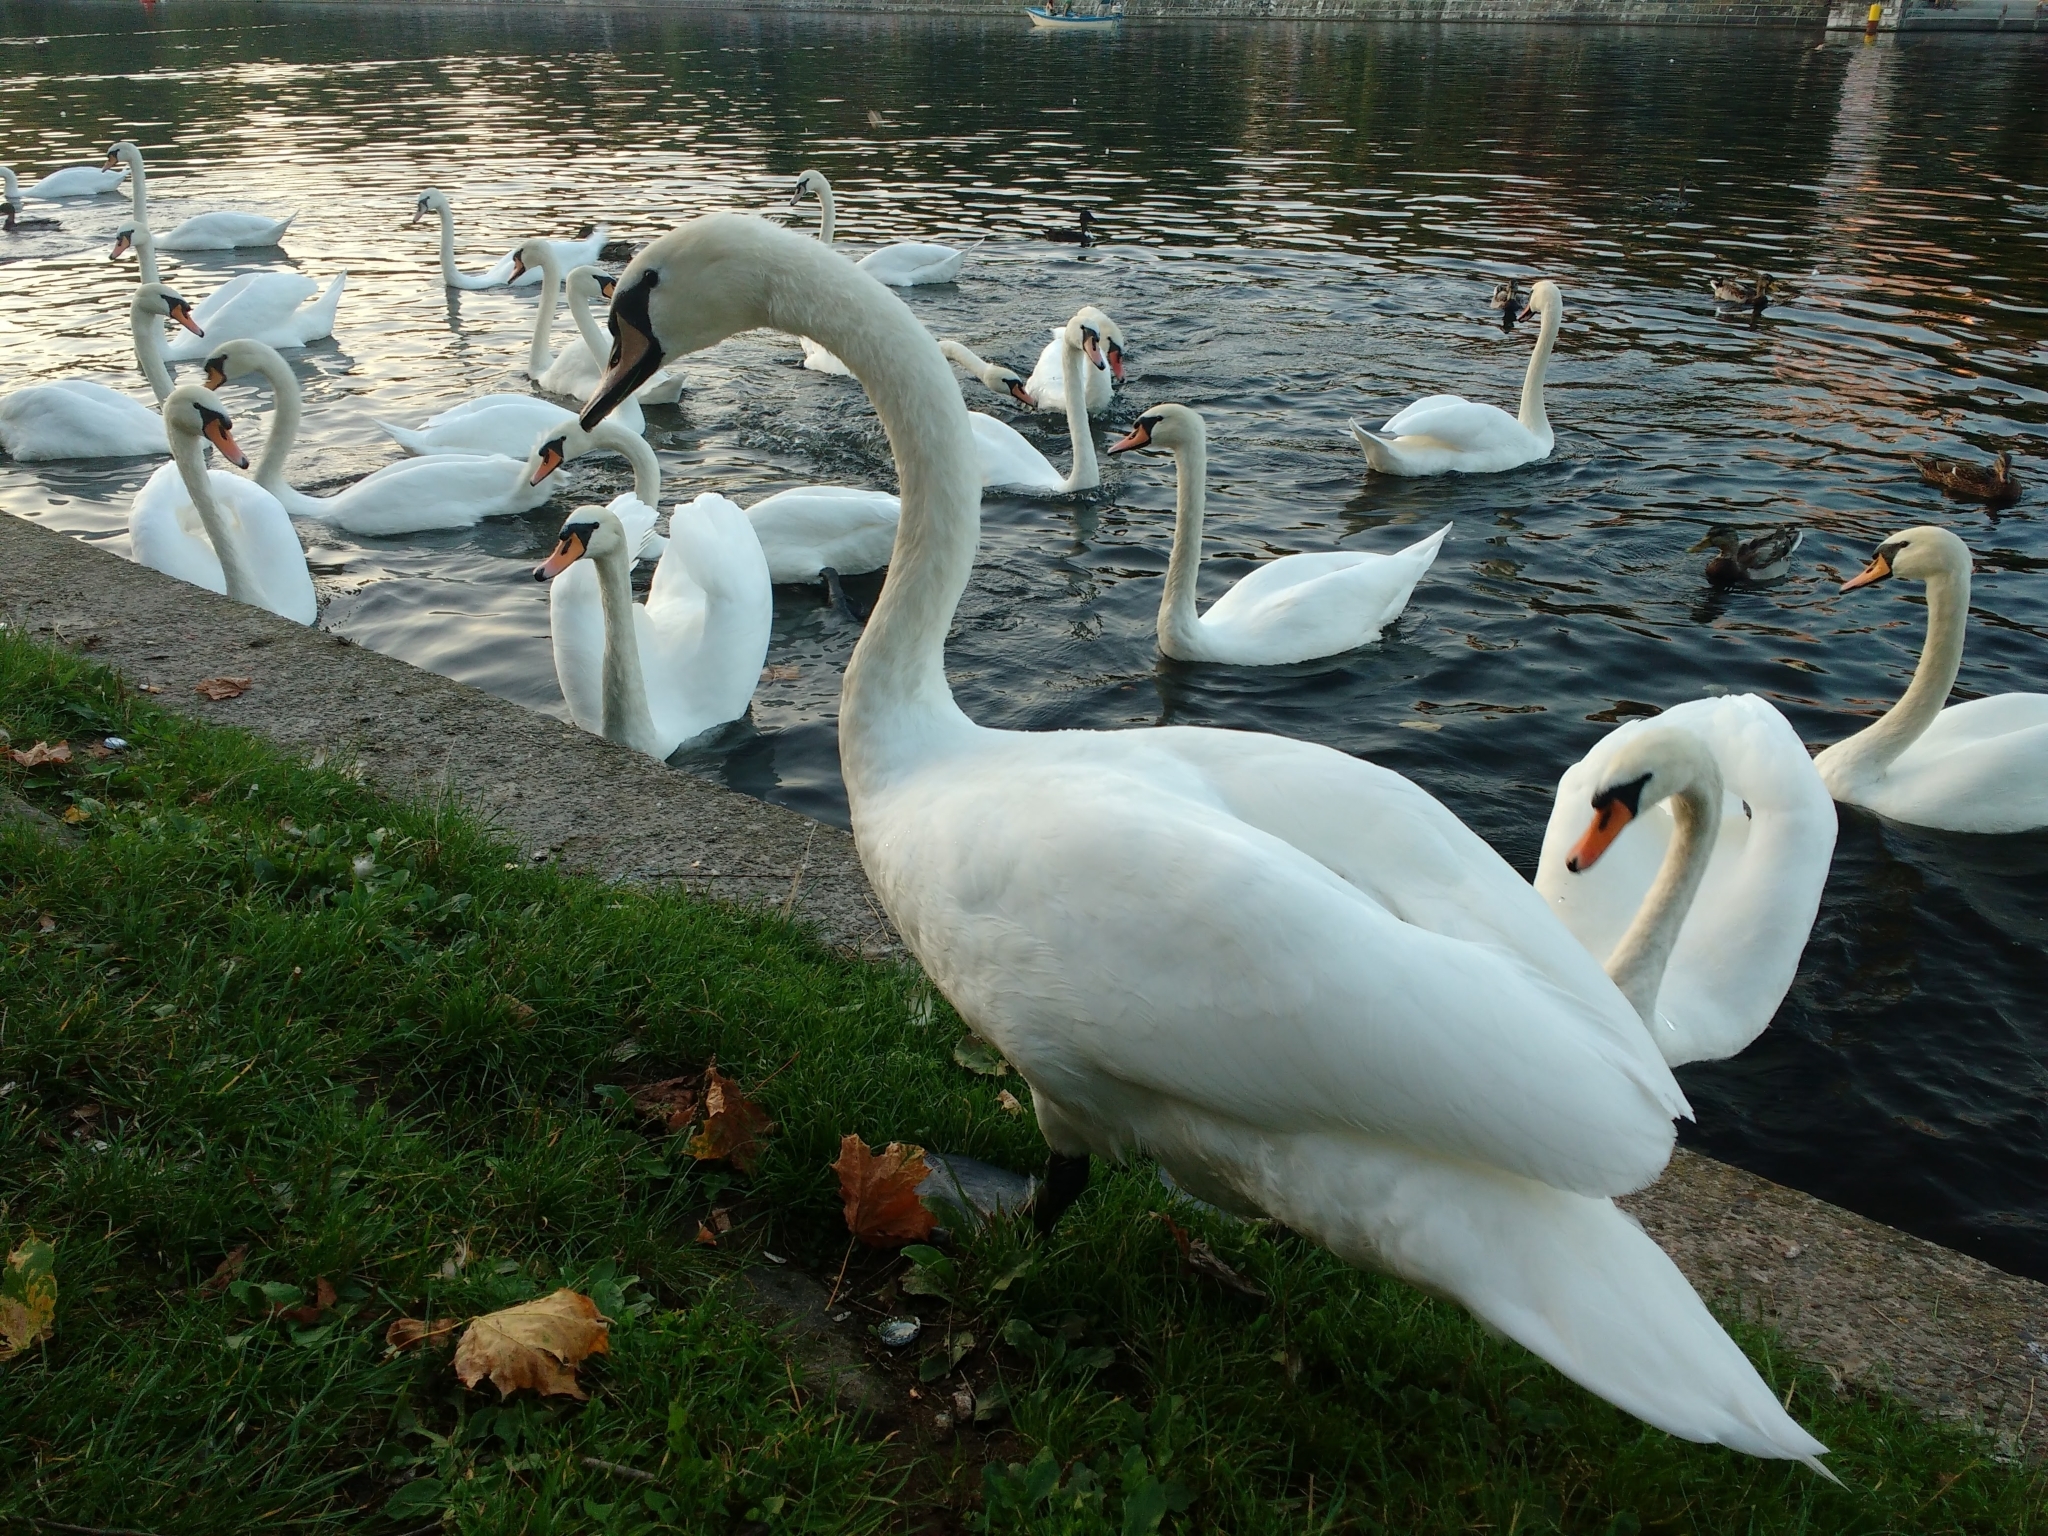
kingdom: Animalia
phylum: Chordata
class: Aves
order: Anseriformes
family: Anatidae
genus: Cygnus
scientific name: Cygnus olor
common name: Mute swan
